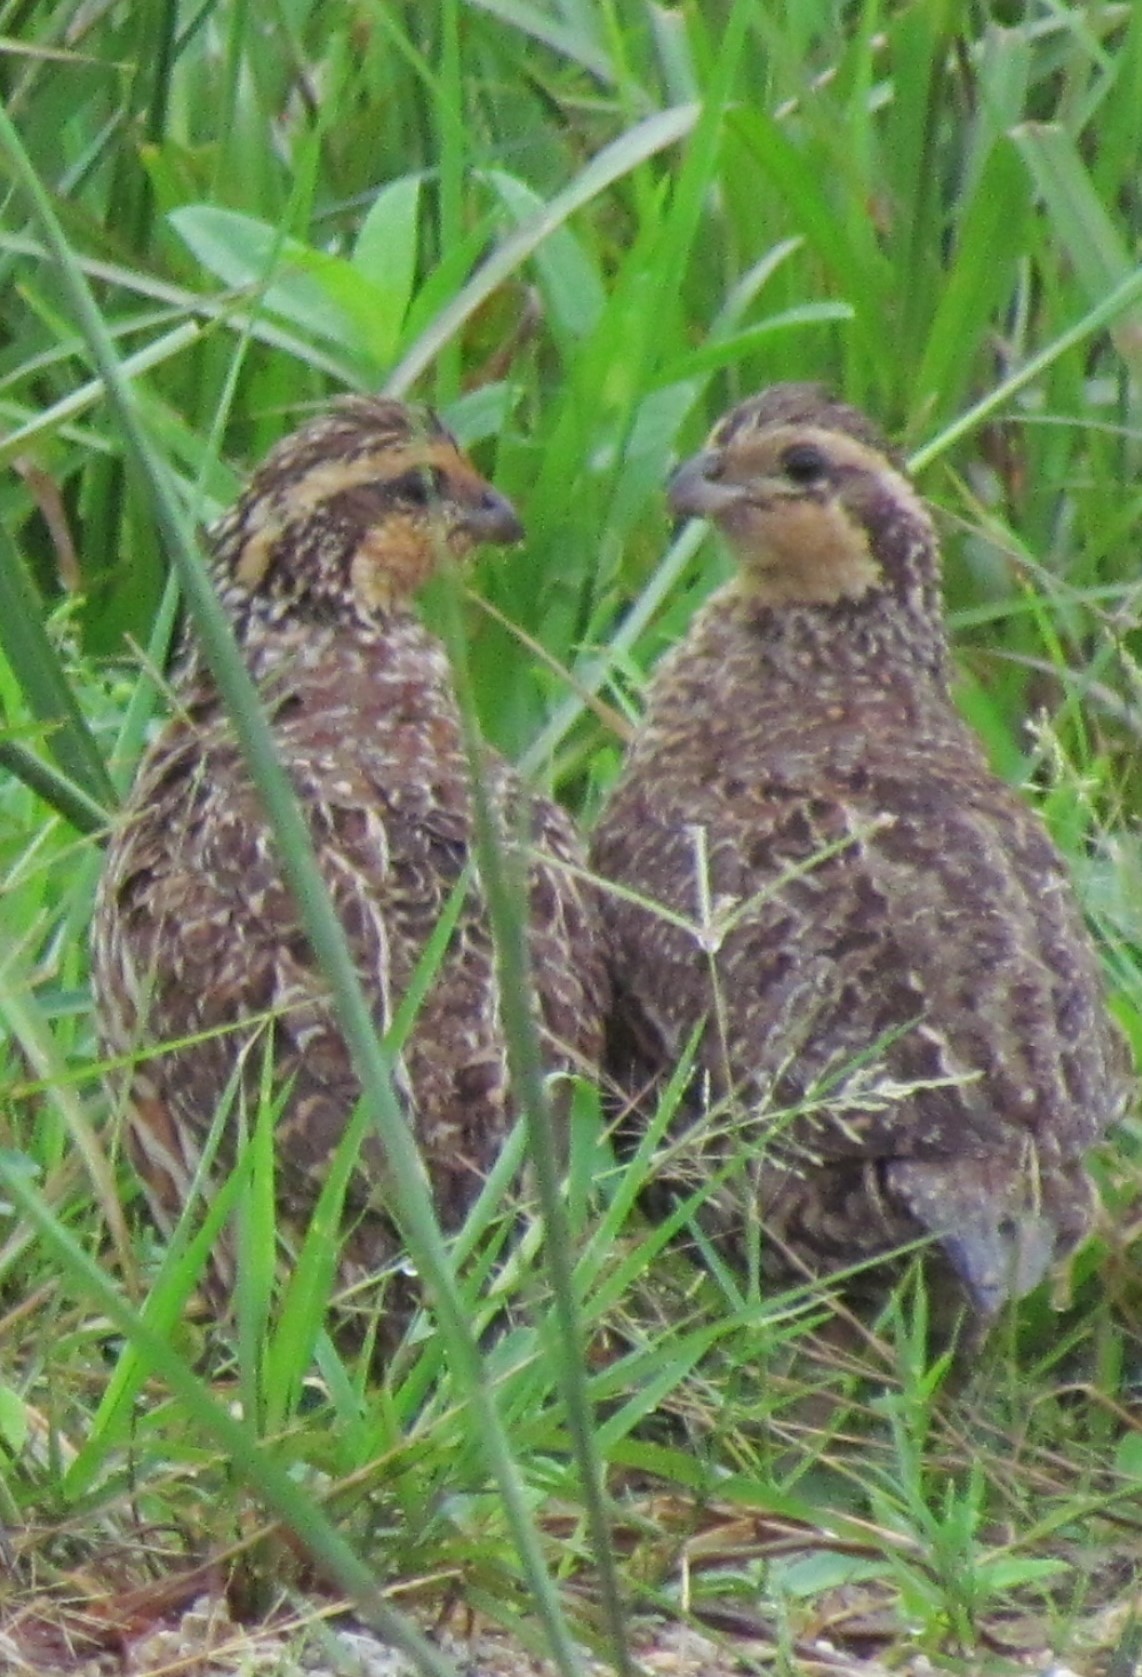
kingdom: Animalia
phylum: Chordata
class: Aves
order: Galliformes
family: Odontophoridae
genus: Colinus
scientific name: Colinus virginianus
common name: Northern bobwhite
